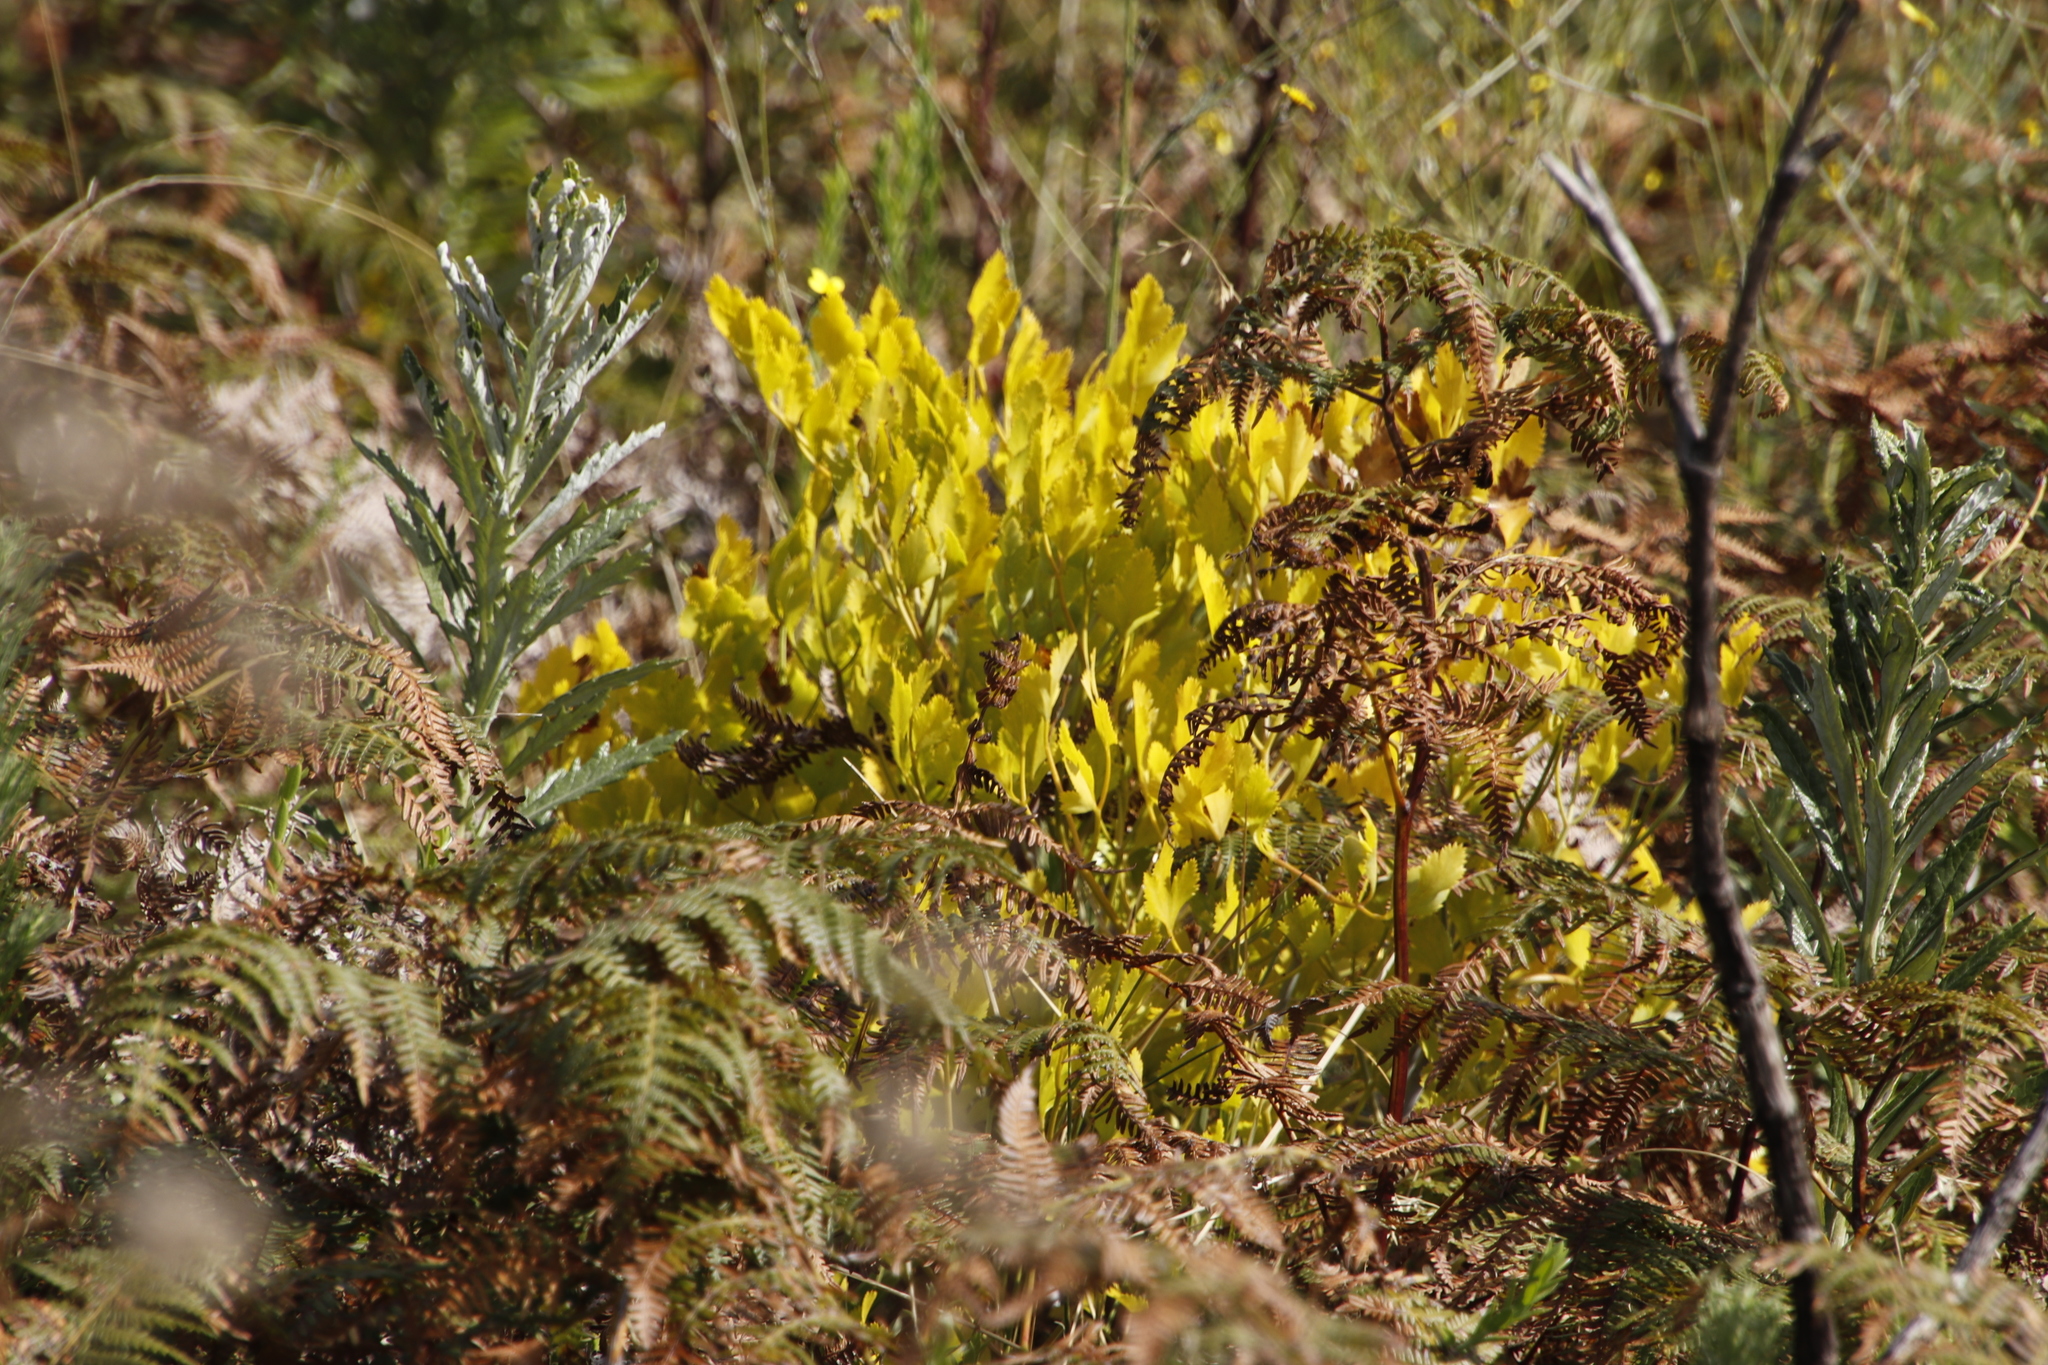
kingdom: Plantae
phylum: Tracheophyta
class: Magnoliopsida
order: Apiales
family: Apiaceae
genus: Notobubon
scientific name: Notobubon galbanum
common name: Blisterbush
